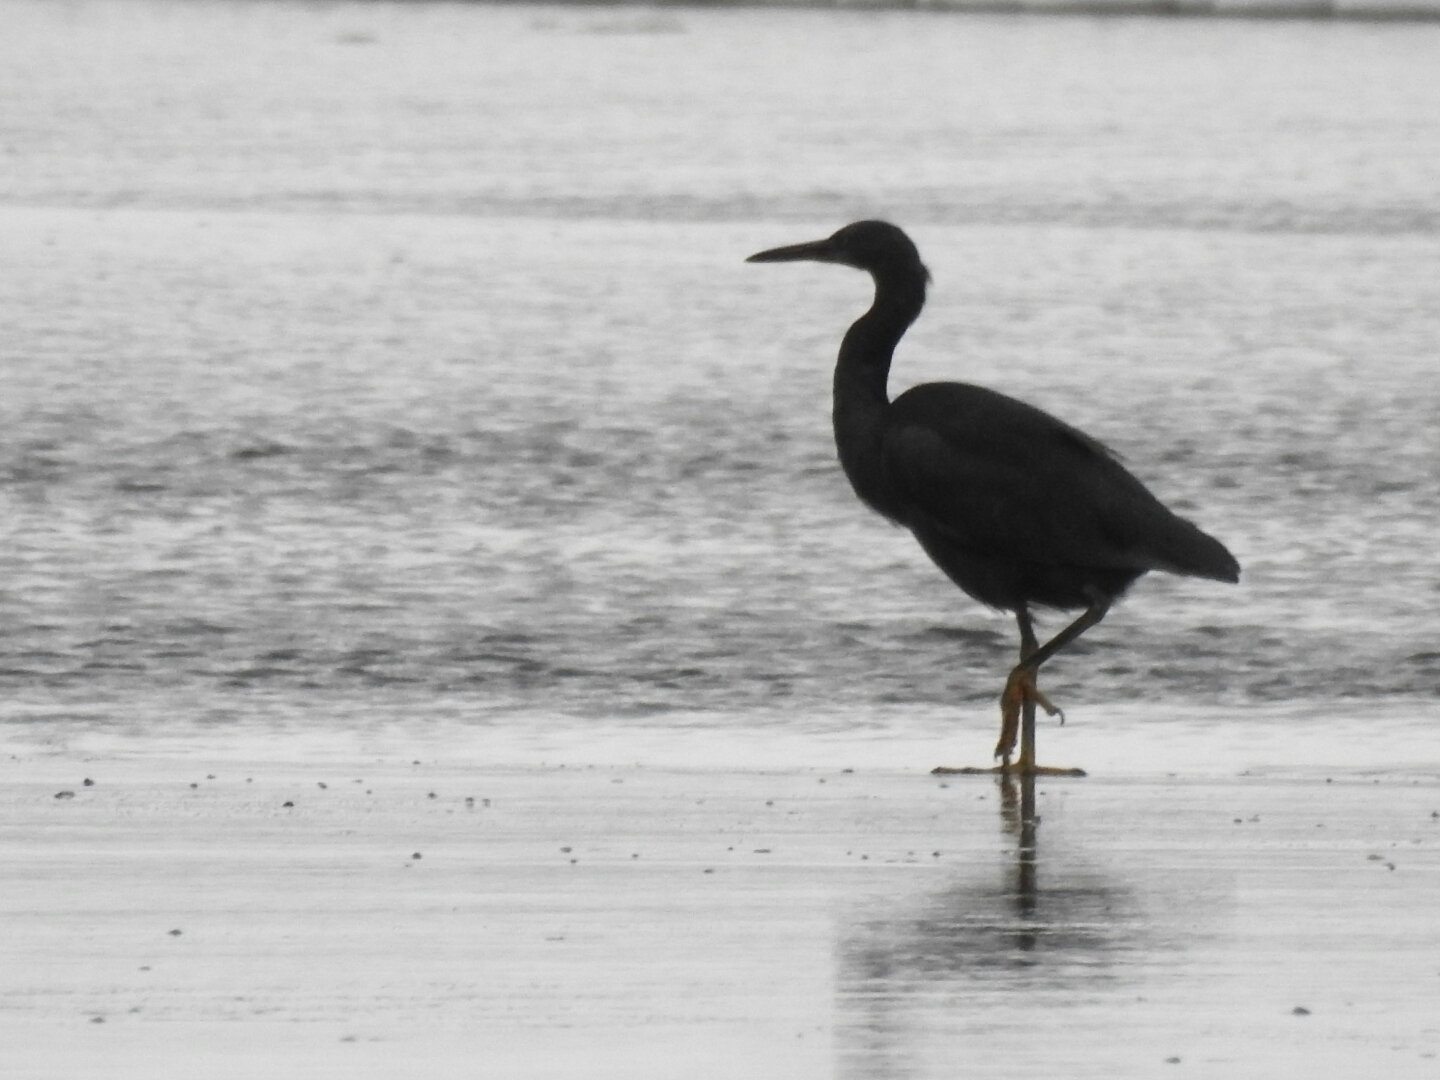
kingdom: Animalia
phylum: Chordata
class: Aves
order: Pelecaniformes
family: Ardeidae
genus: Egretta
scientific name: Egretta sacra
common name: Pacific reef heron
